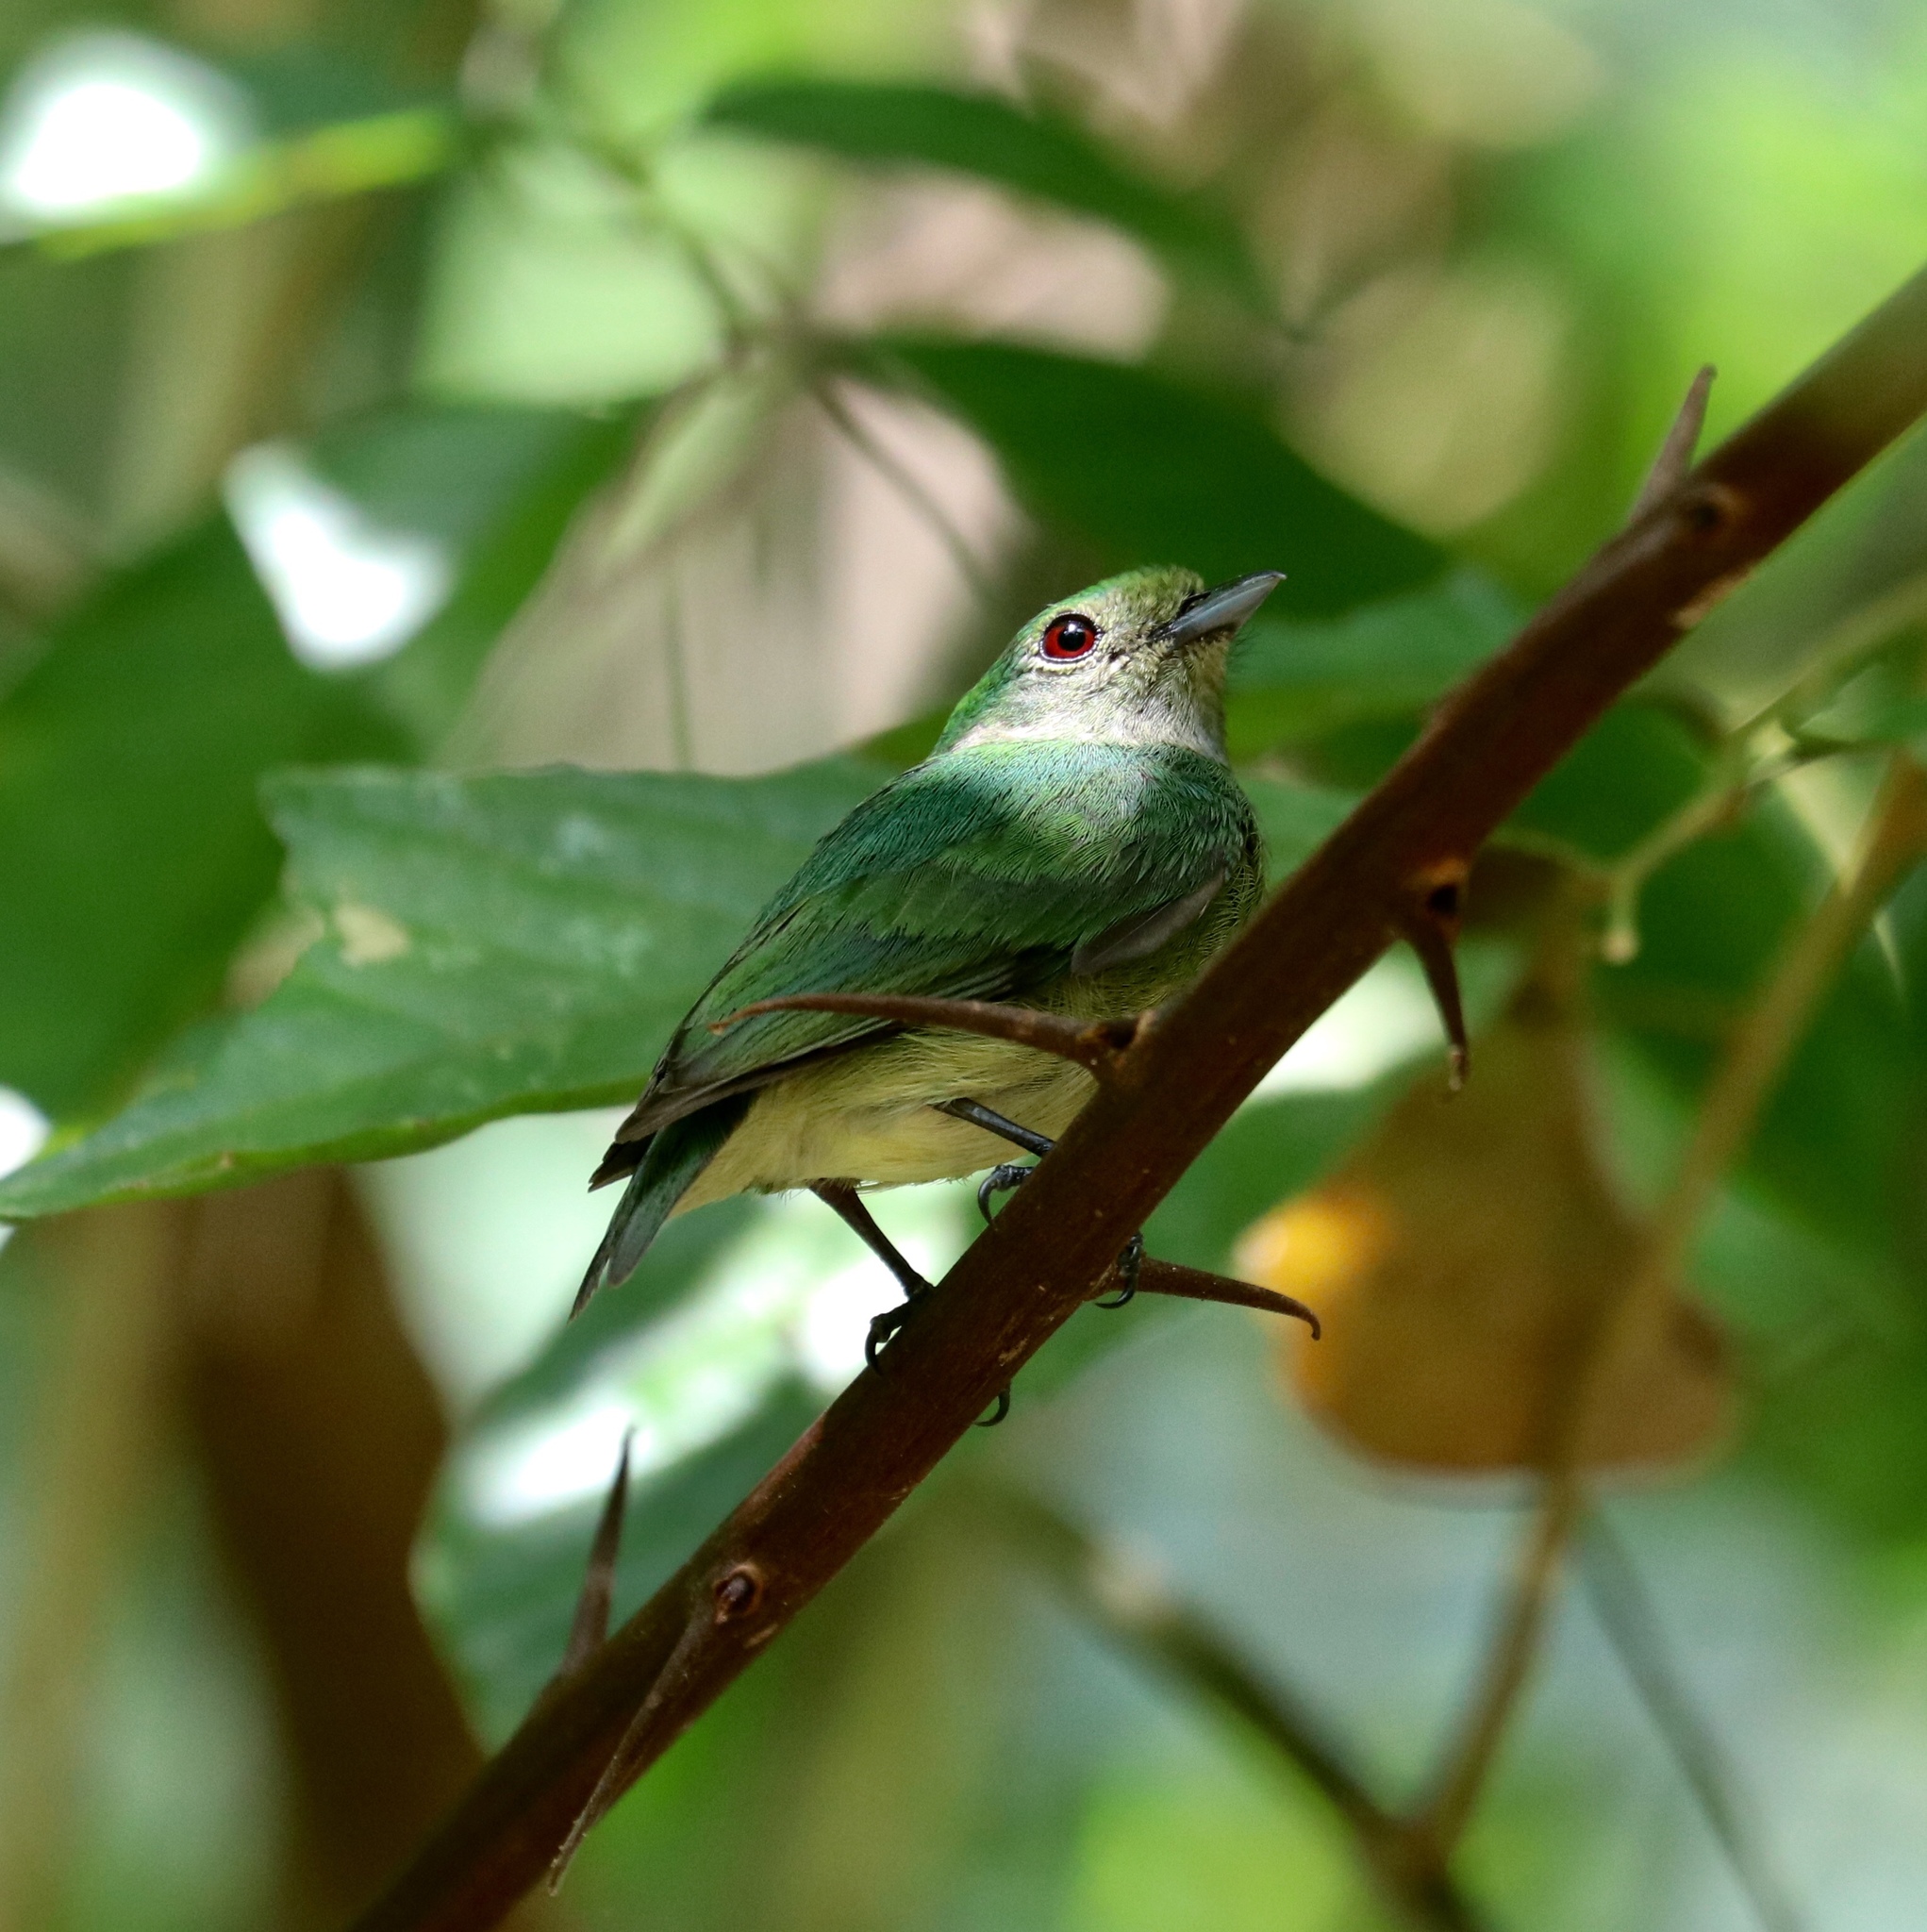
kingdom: Animalia
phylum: Chordata
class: Aves
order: Passeriformes
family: Pipridae
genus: Lepidothrix
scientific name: Lepidothrix coronata
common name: Blue-crowned manakin
